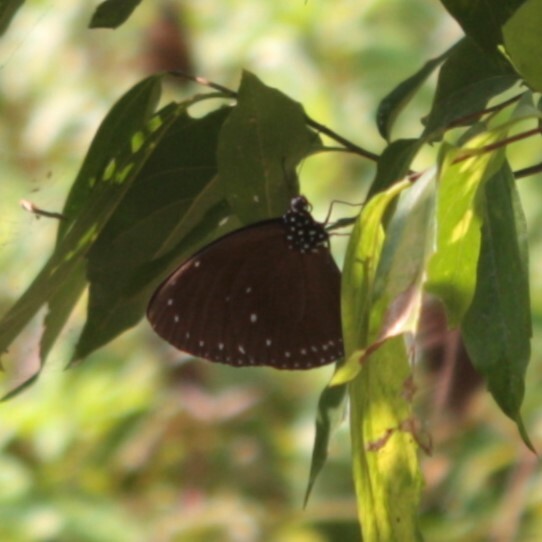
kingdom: Animalia
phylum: Arthropoda
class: Insecta
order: Lepidoptera
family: Nymphalidae
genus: Euploea
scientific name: Euploea tulliolus
